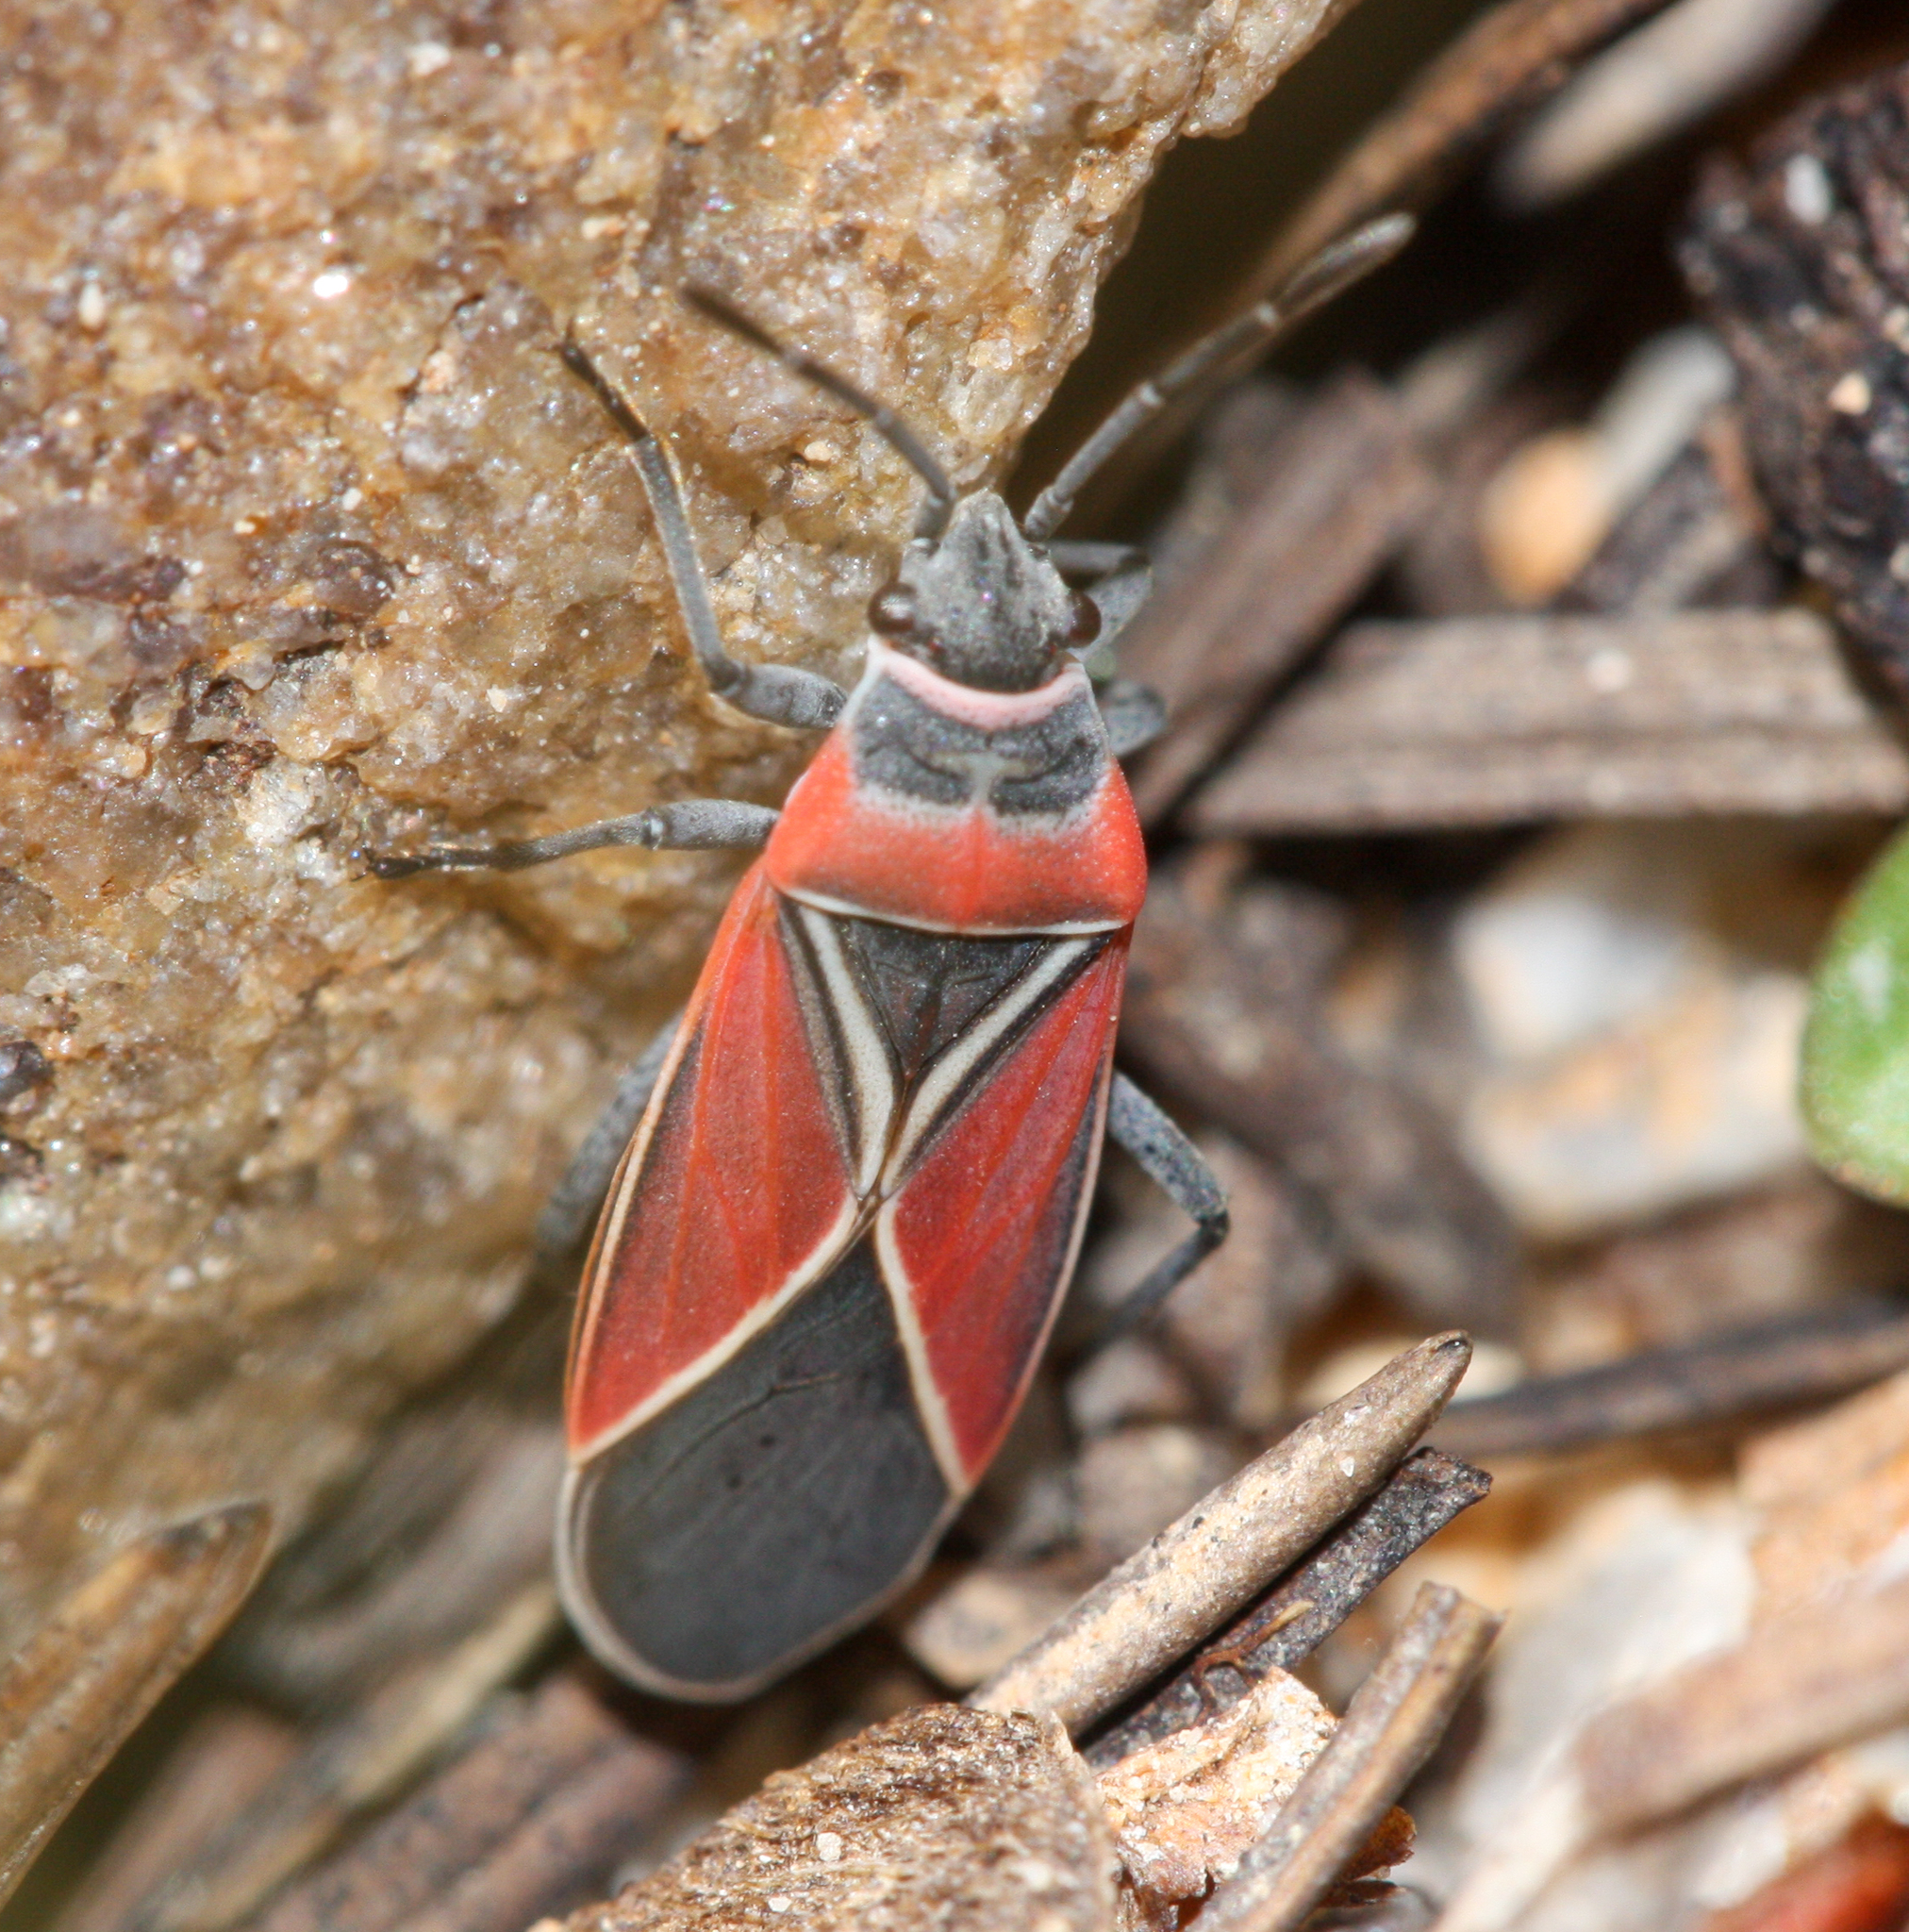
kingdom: Animalia
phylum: Arthropoda
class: Insecta
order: Hemiptera
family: Lygaeidae
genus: Neacoryphus
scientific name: Neacoryphus bicrucis
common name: Lygaeid bug
